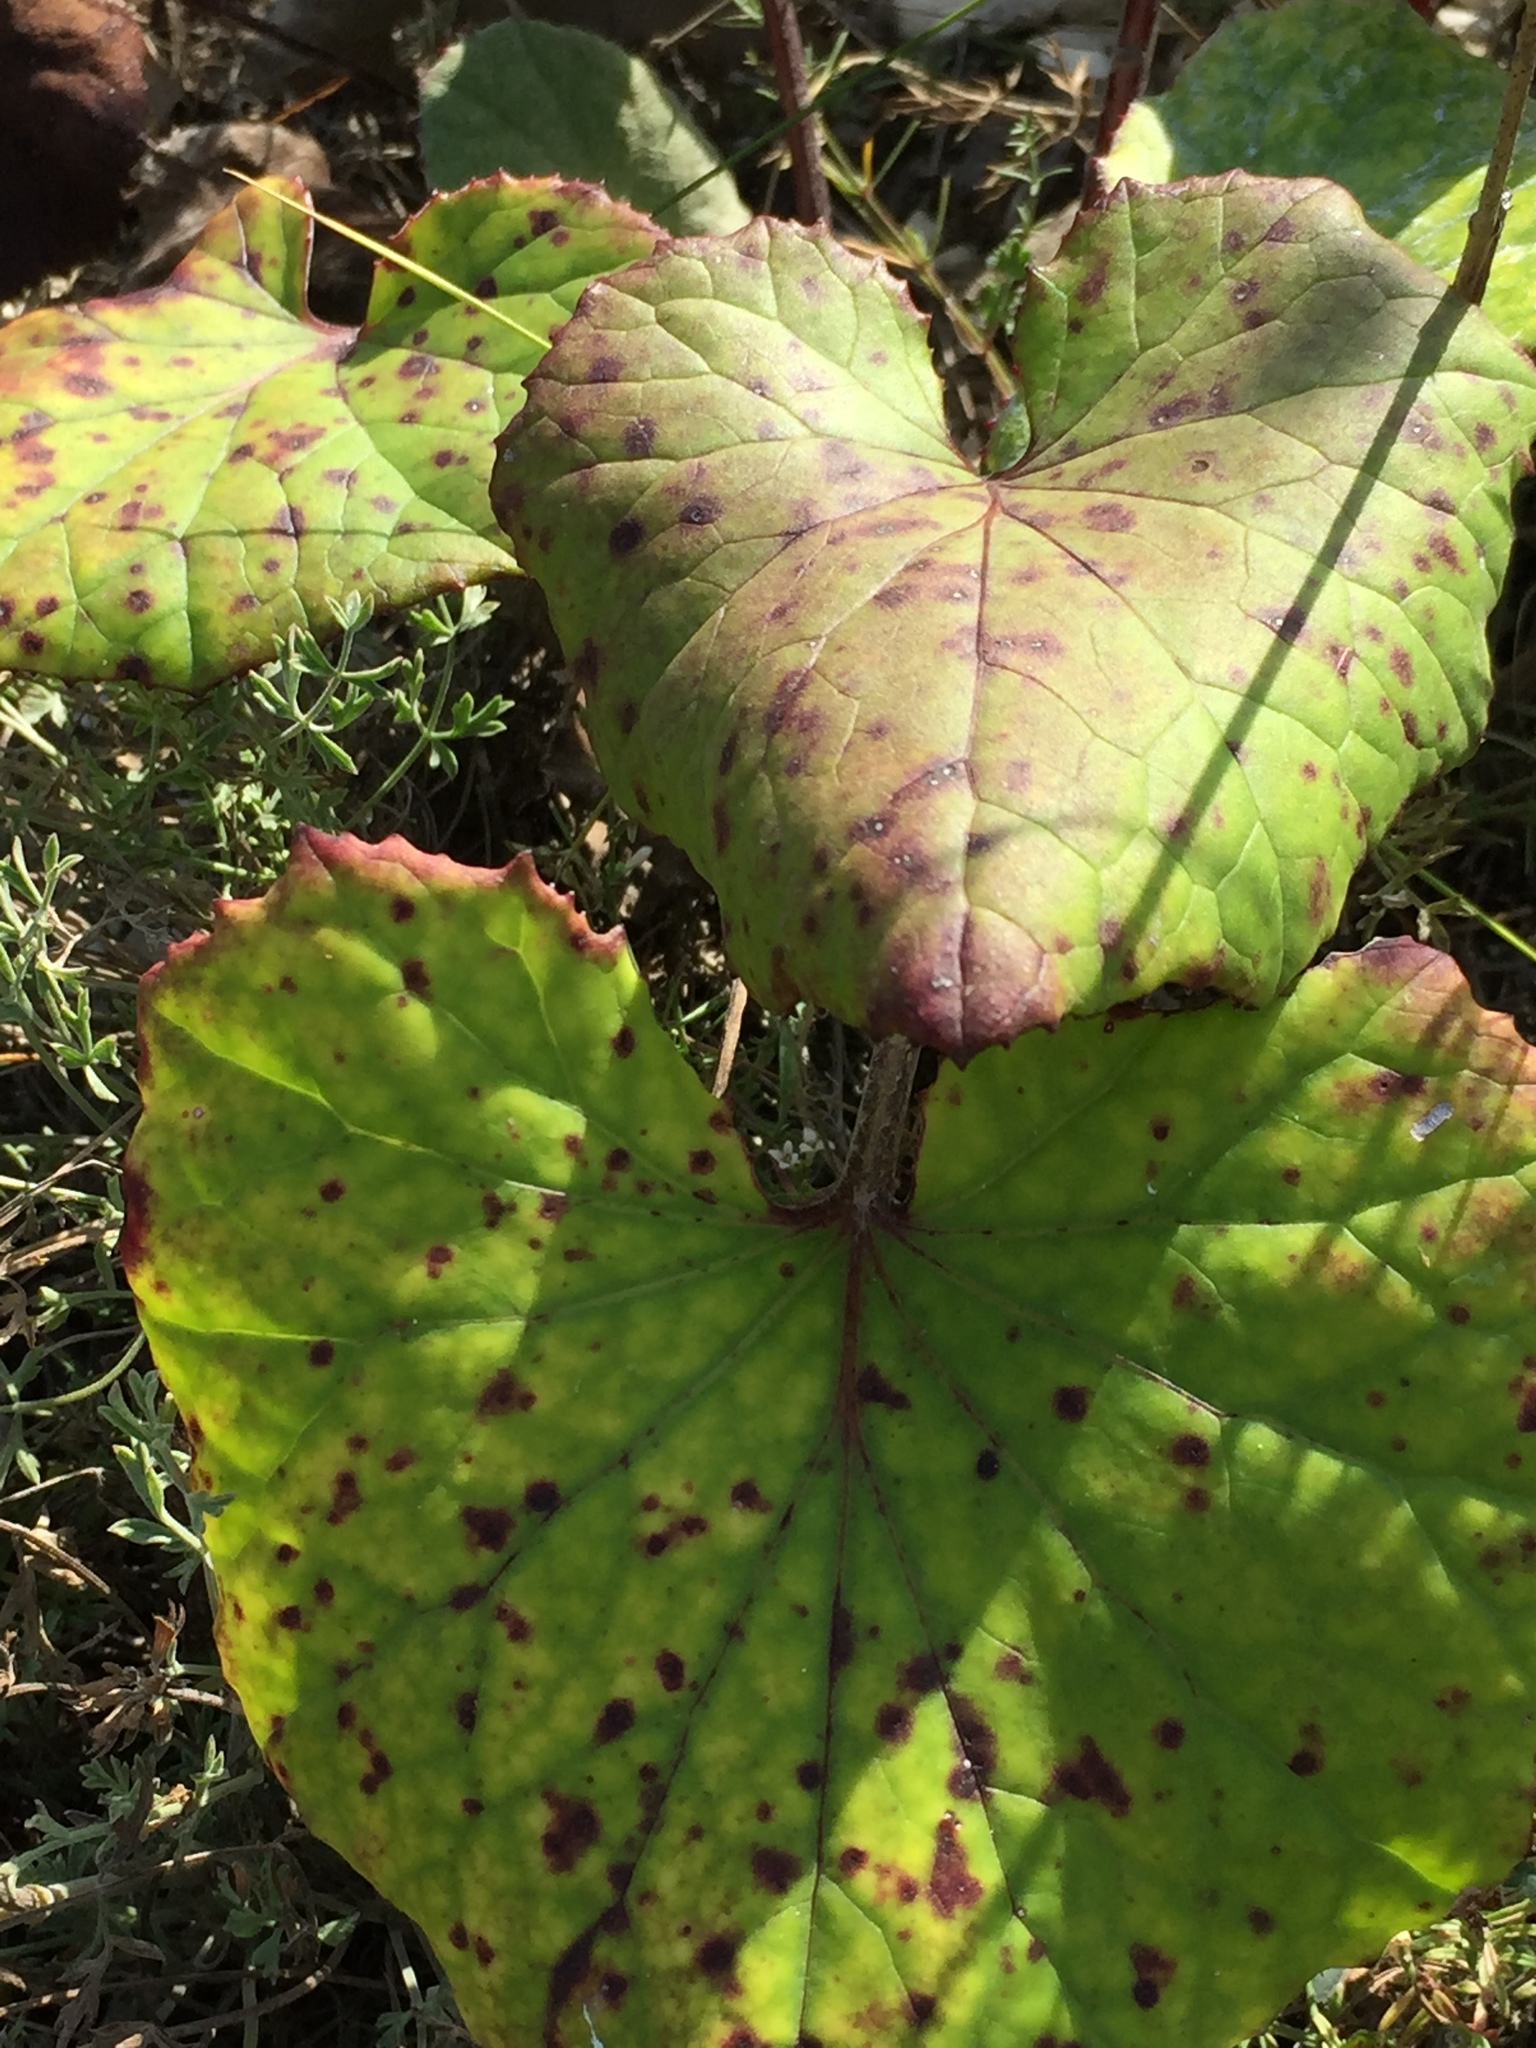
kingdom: Plantae
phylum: Tracheophyta
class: Magnoliopsida
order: Asterales
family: Asteraceae
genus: Tussilago
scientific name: Tussilago farfara
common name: Coltsfoot
